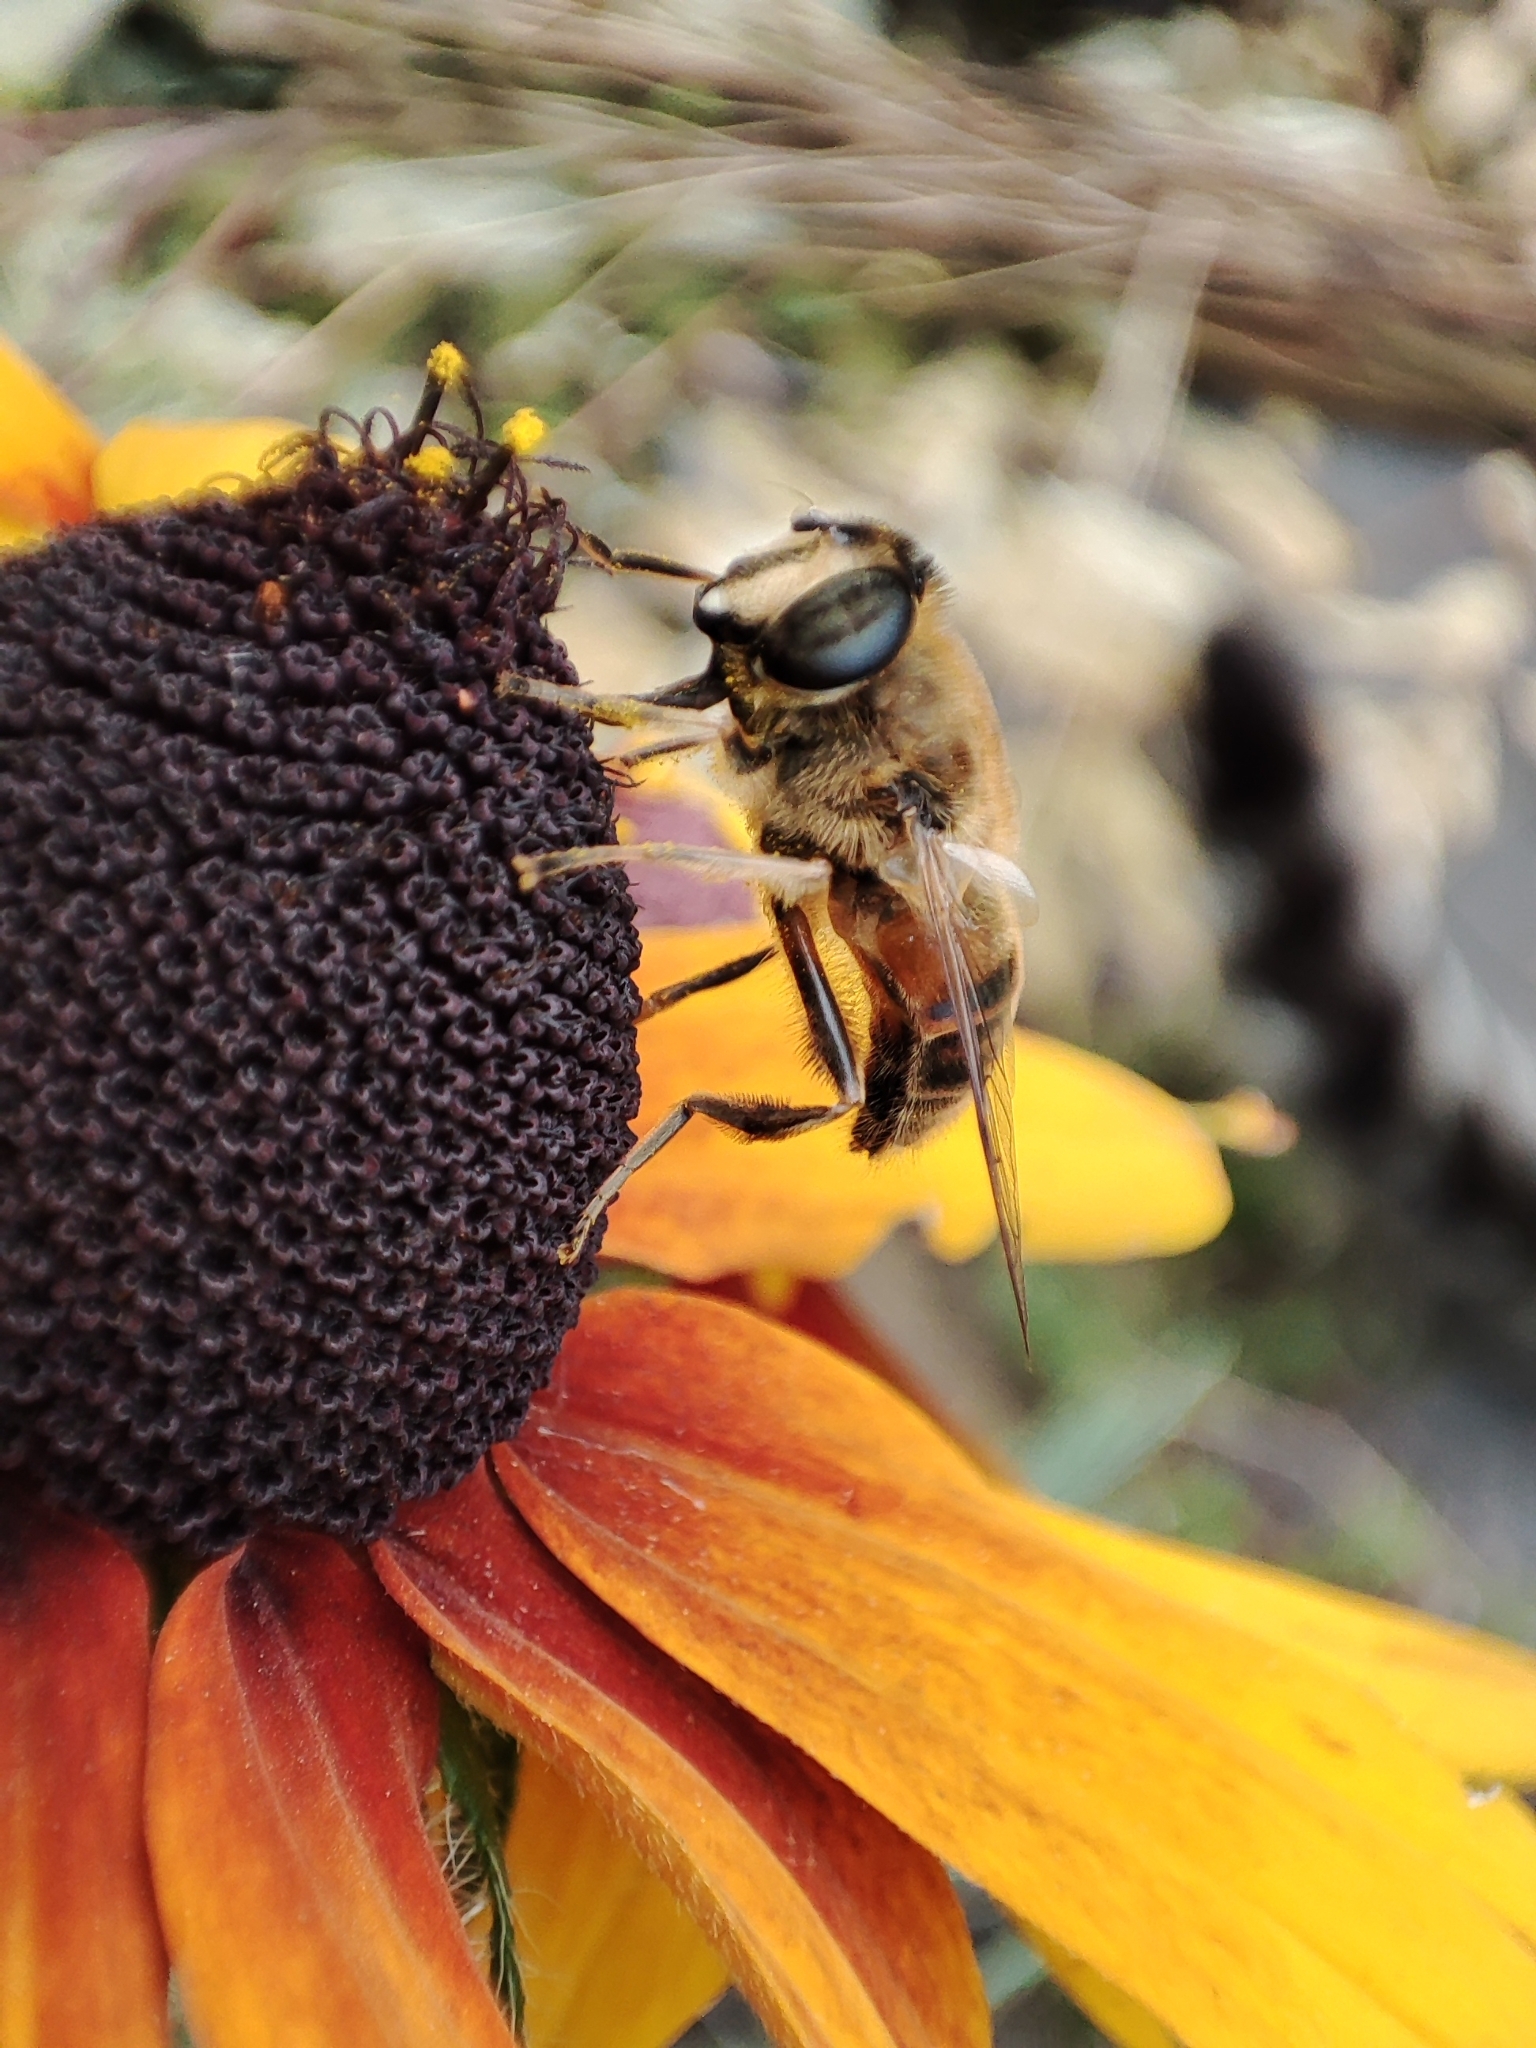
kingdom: Animalia
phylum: Arthropoda
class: Insecta
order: Diptera
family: Syrphidae
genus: Eristalis
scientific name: Eristalis tenax
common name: Drone fly
